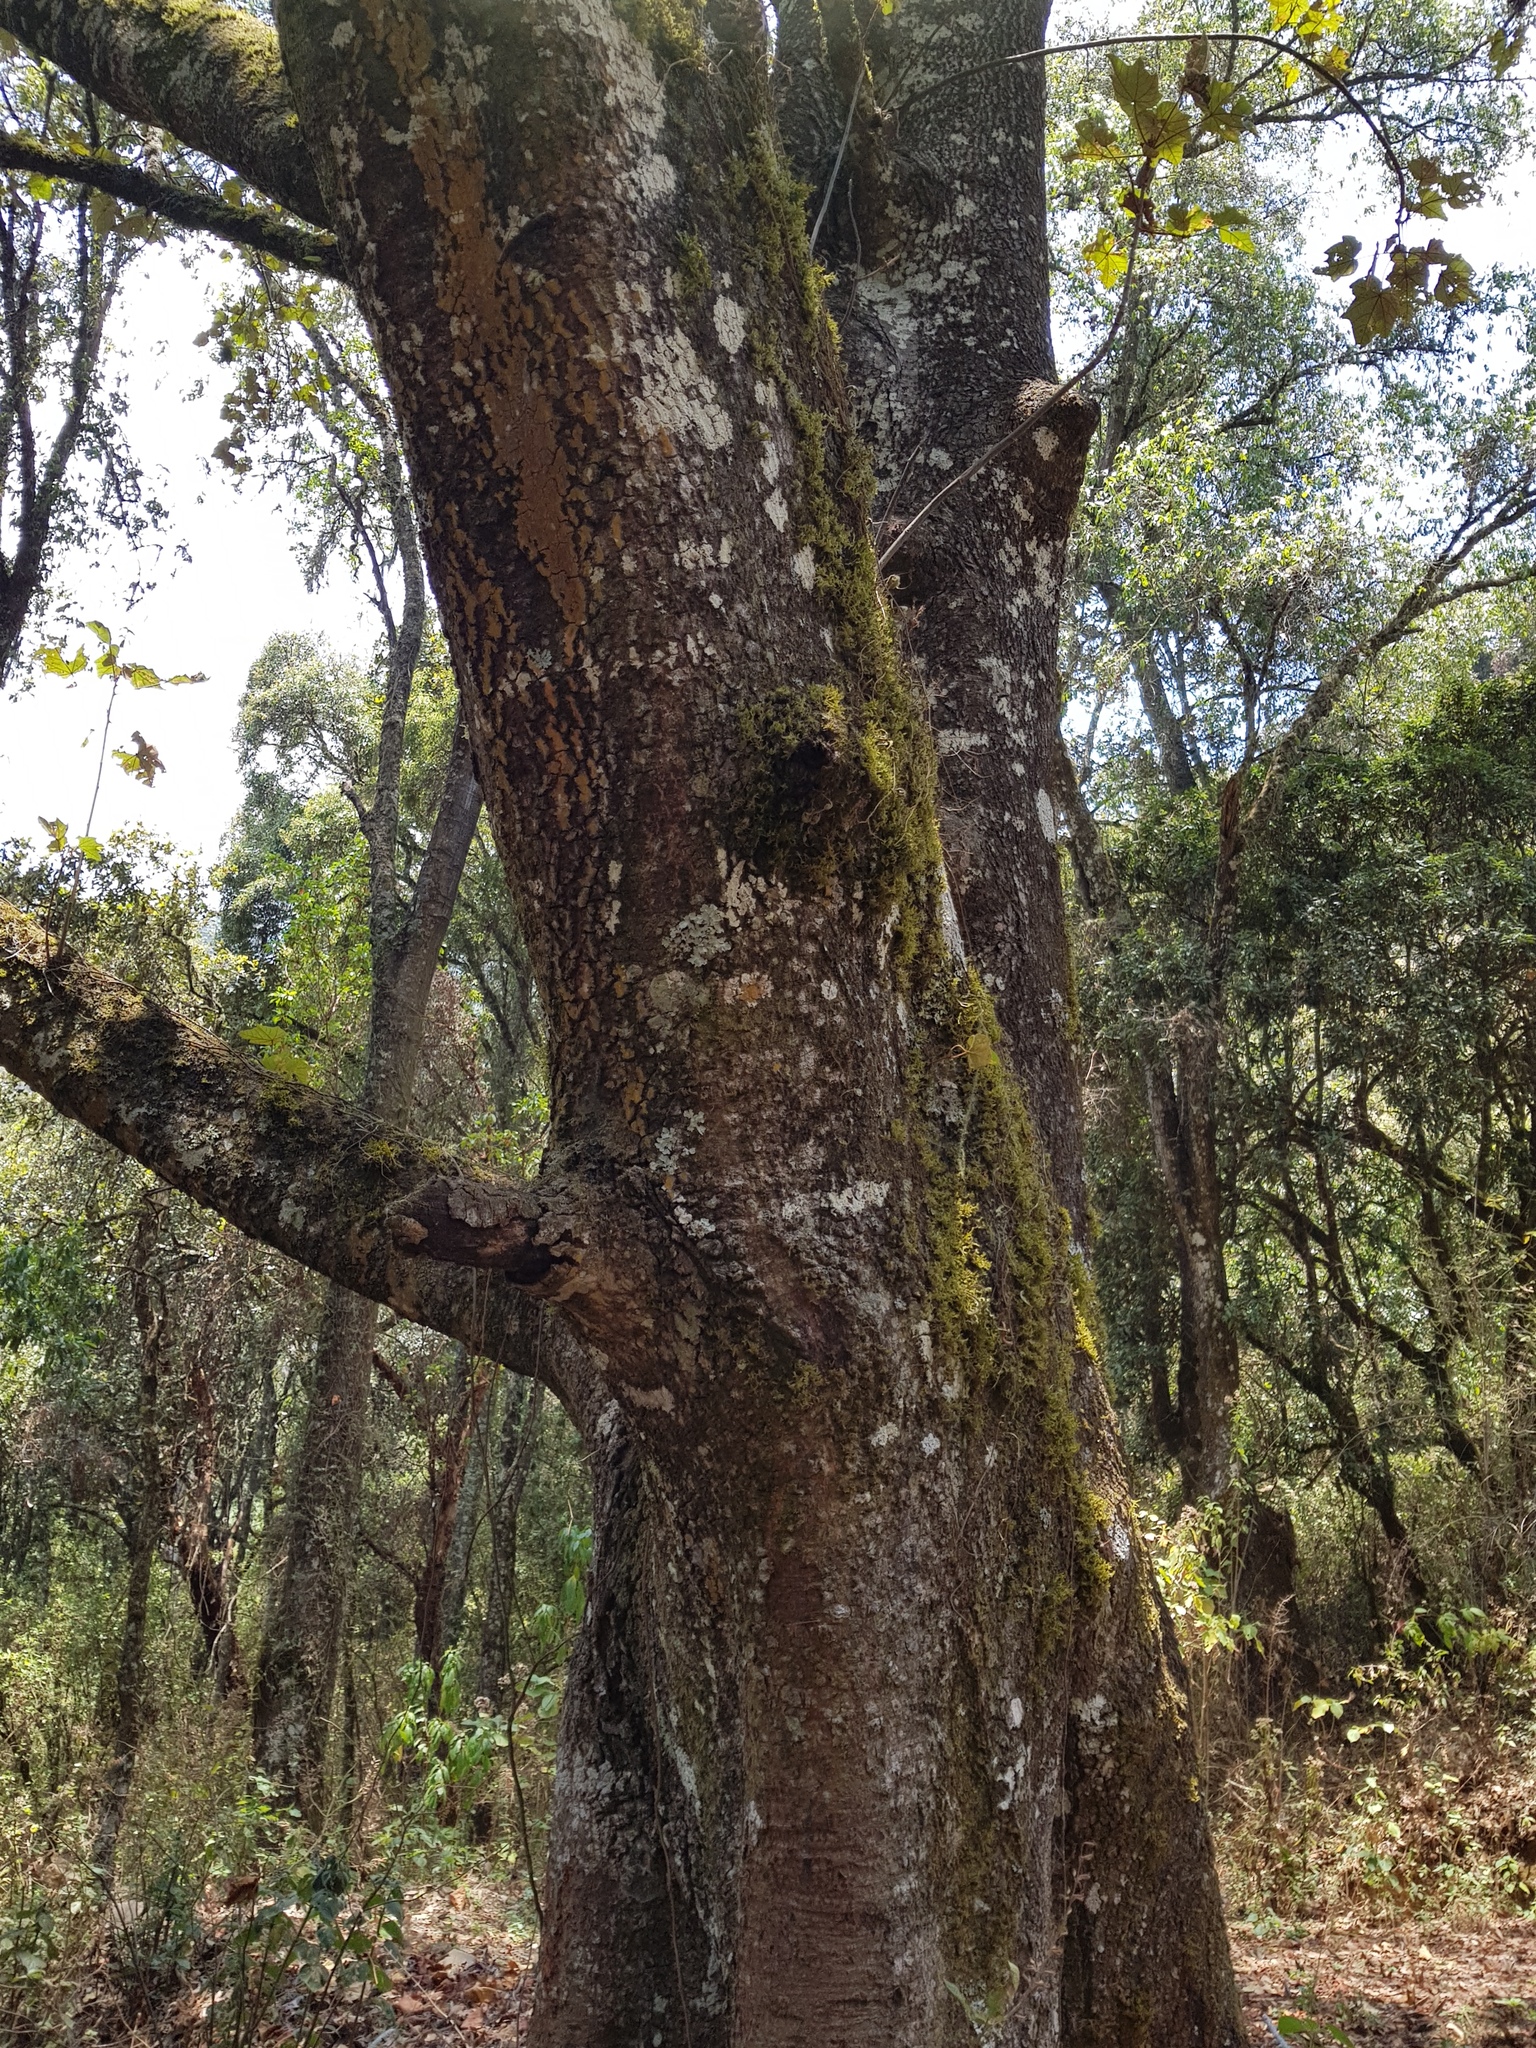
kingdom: Plantae
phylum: Tracheophyta
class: Magnoliopsida
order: Malvales
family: Malvaceae
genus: Chiranthodendron
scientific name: Chiranthodendron pentadactylon
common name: Mexican-hat-plant
